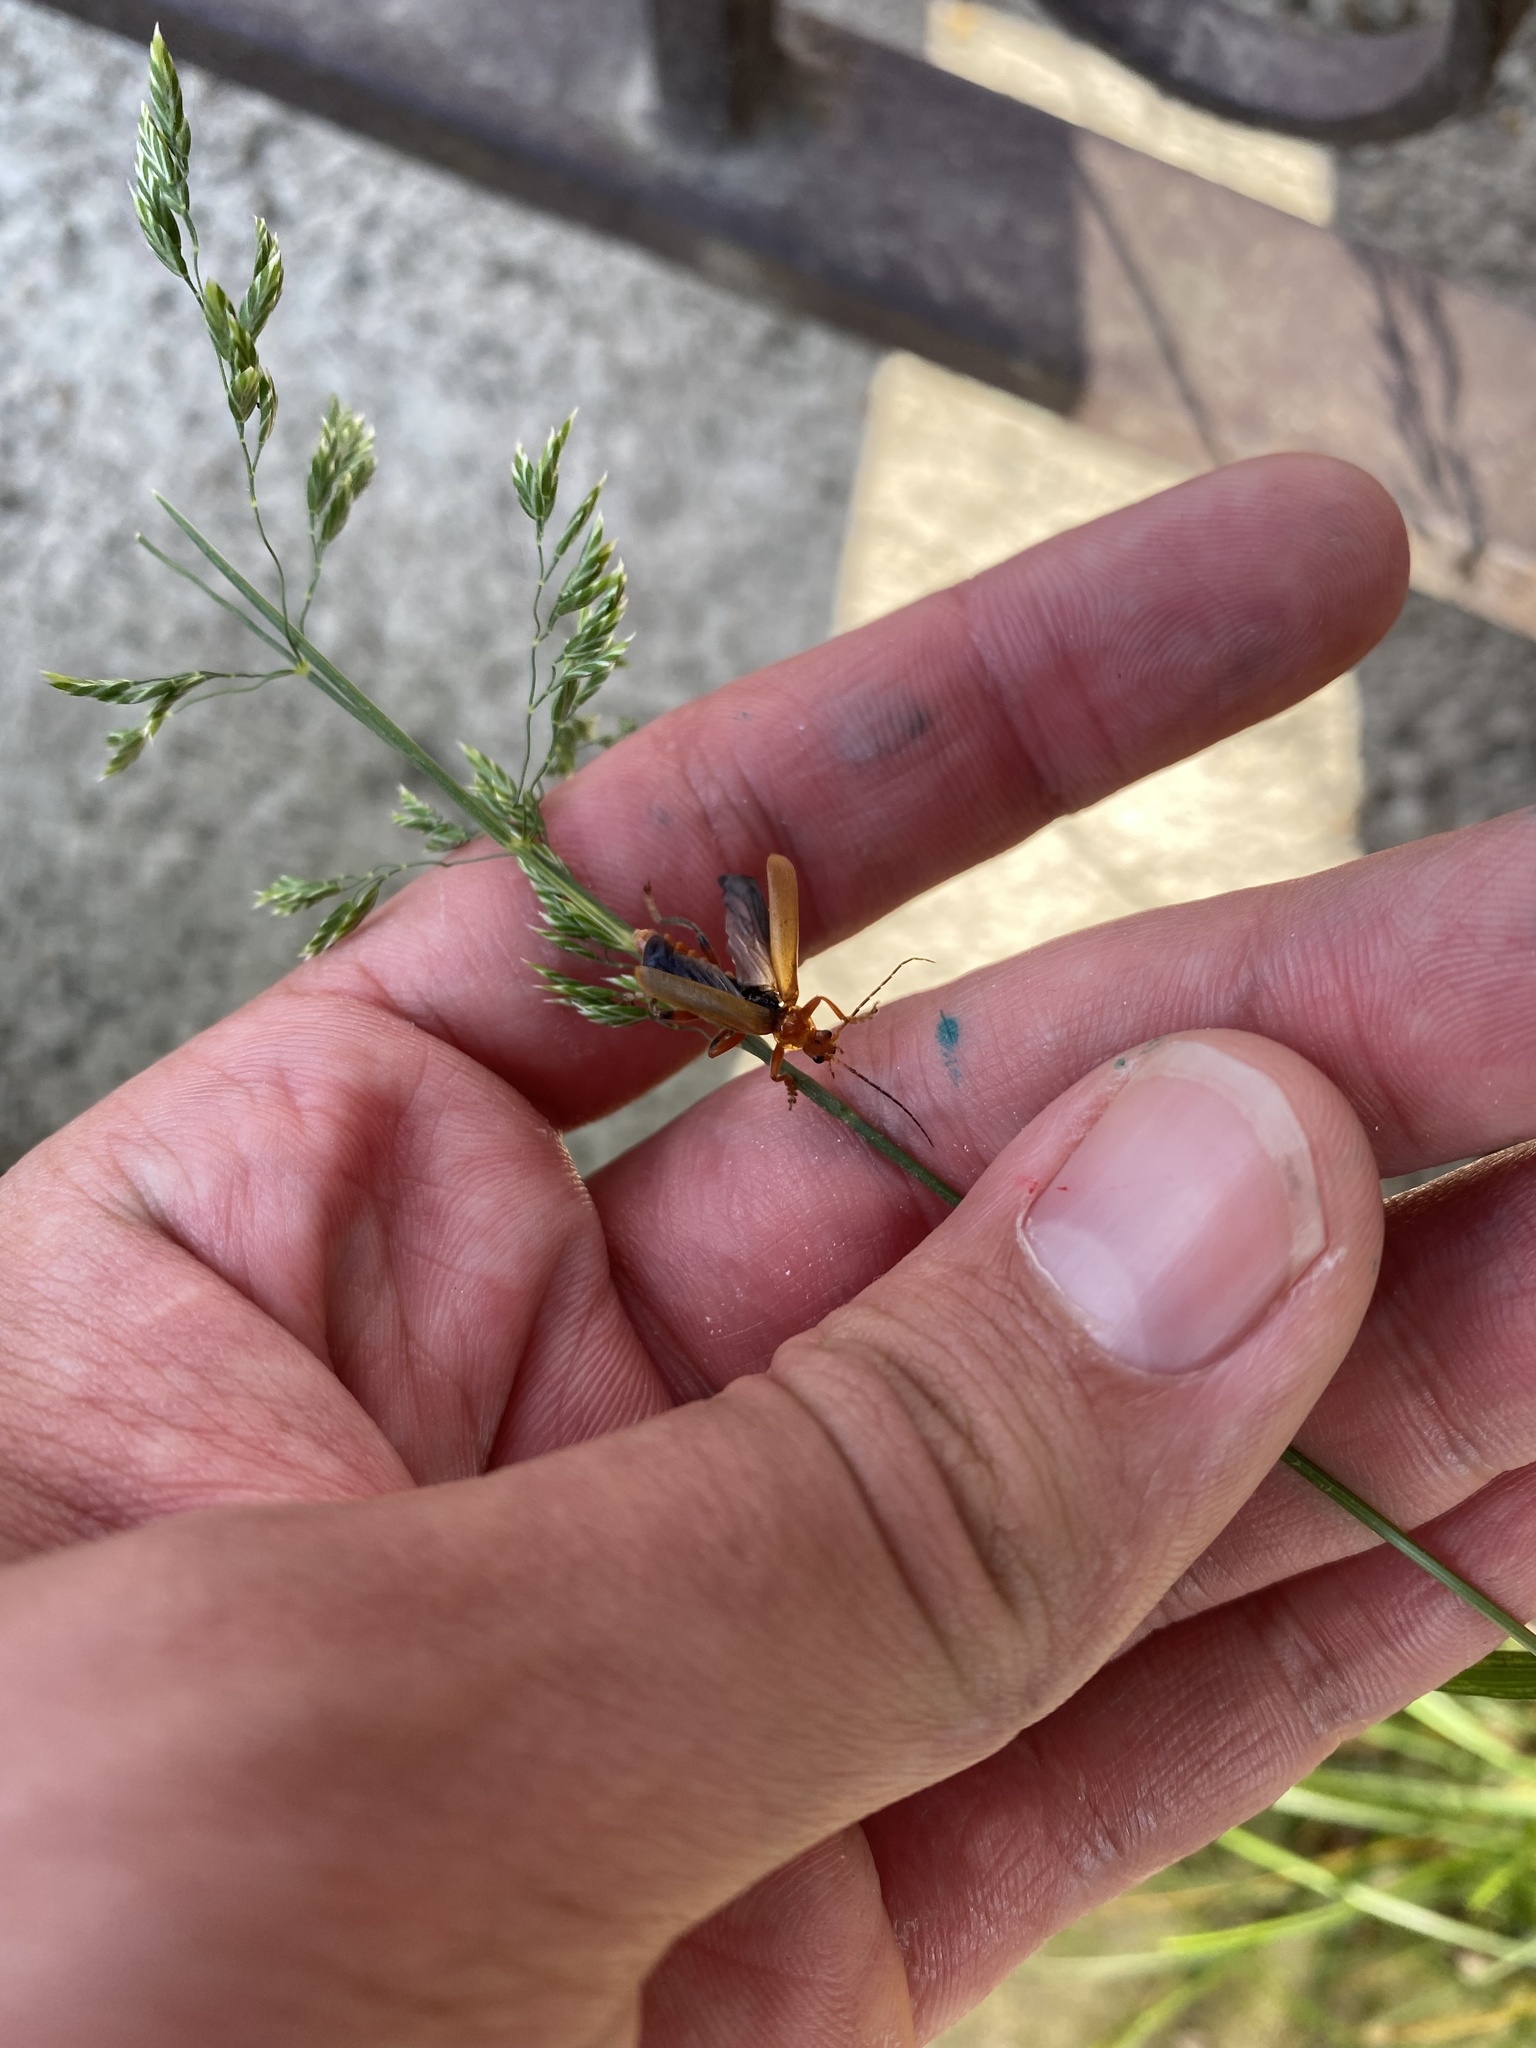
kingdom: Animalia
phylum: Arthropoda
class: Insecta
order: Coleoptera
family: Cantharidae
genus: Cantharis
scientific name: Cantharis livida
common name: Livid soldier beetle
